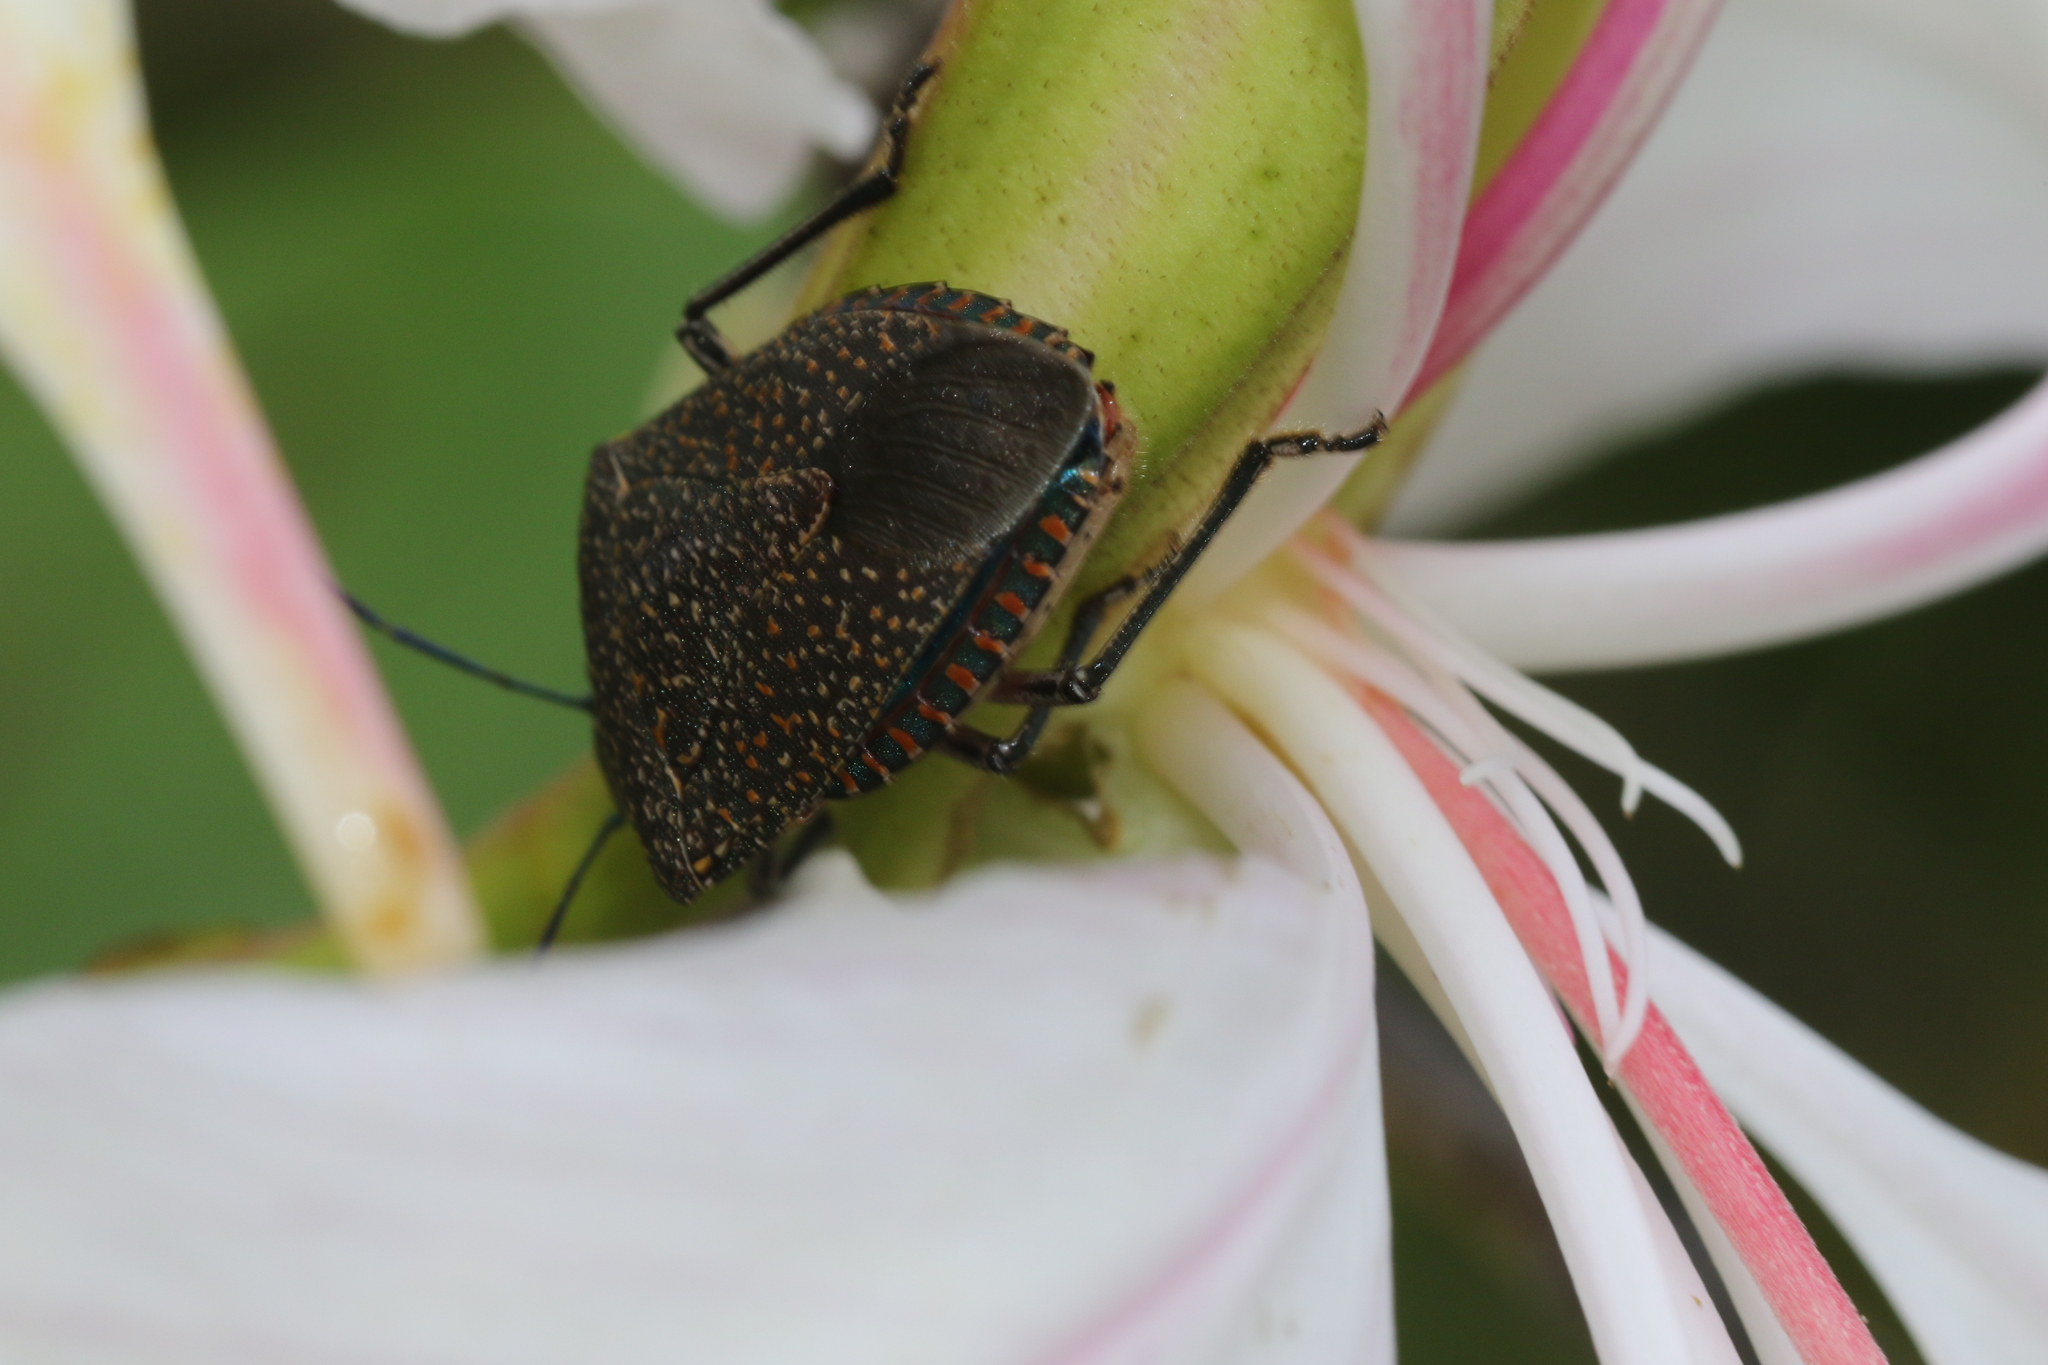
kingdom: Animalia
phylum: Arthropoda
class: Insecta
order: Hemiptera
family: Pentatomidae
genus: Pellaea
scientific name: Pellaea stictica
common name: Stink bug
